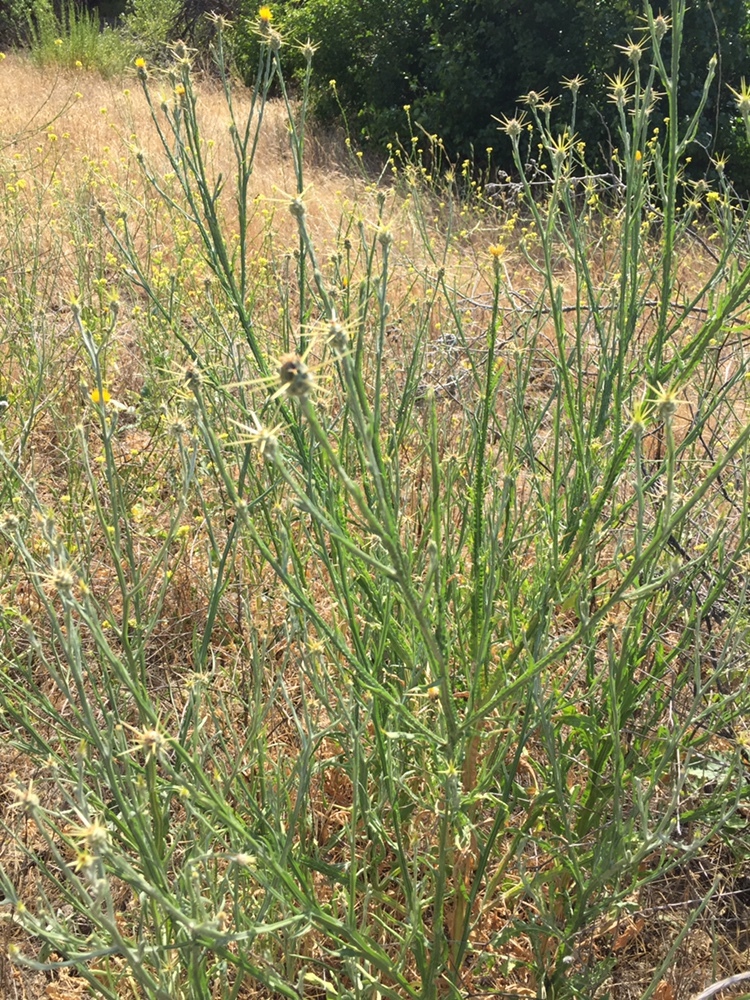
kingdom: Plantae
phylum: Tracheophyta
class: Magnoliopsida
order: Asterales
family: Asteraceae
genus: Centaurea
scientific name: Centaurea solstitialis
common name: Yellow star-thistle
